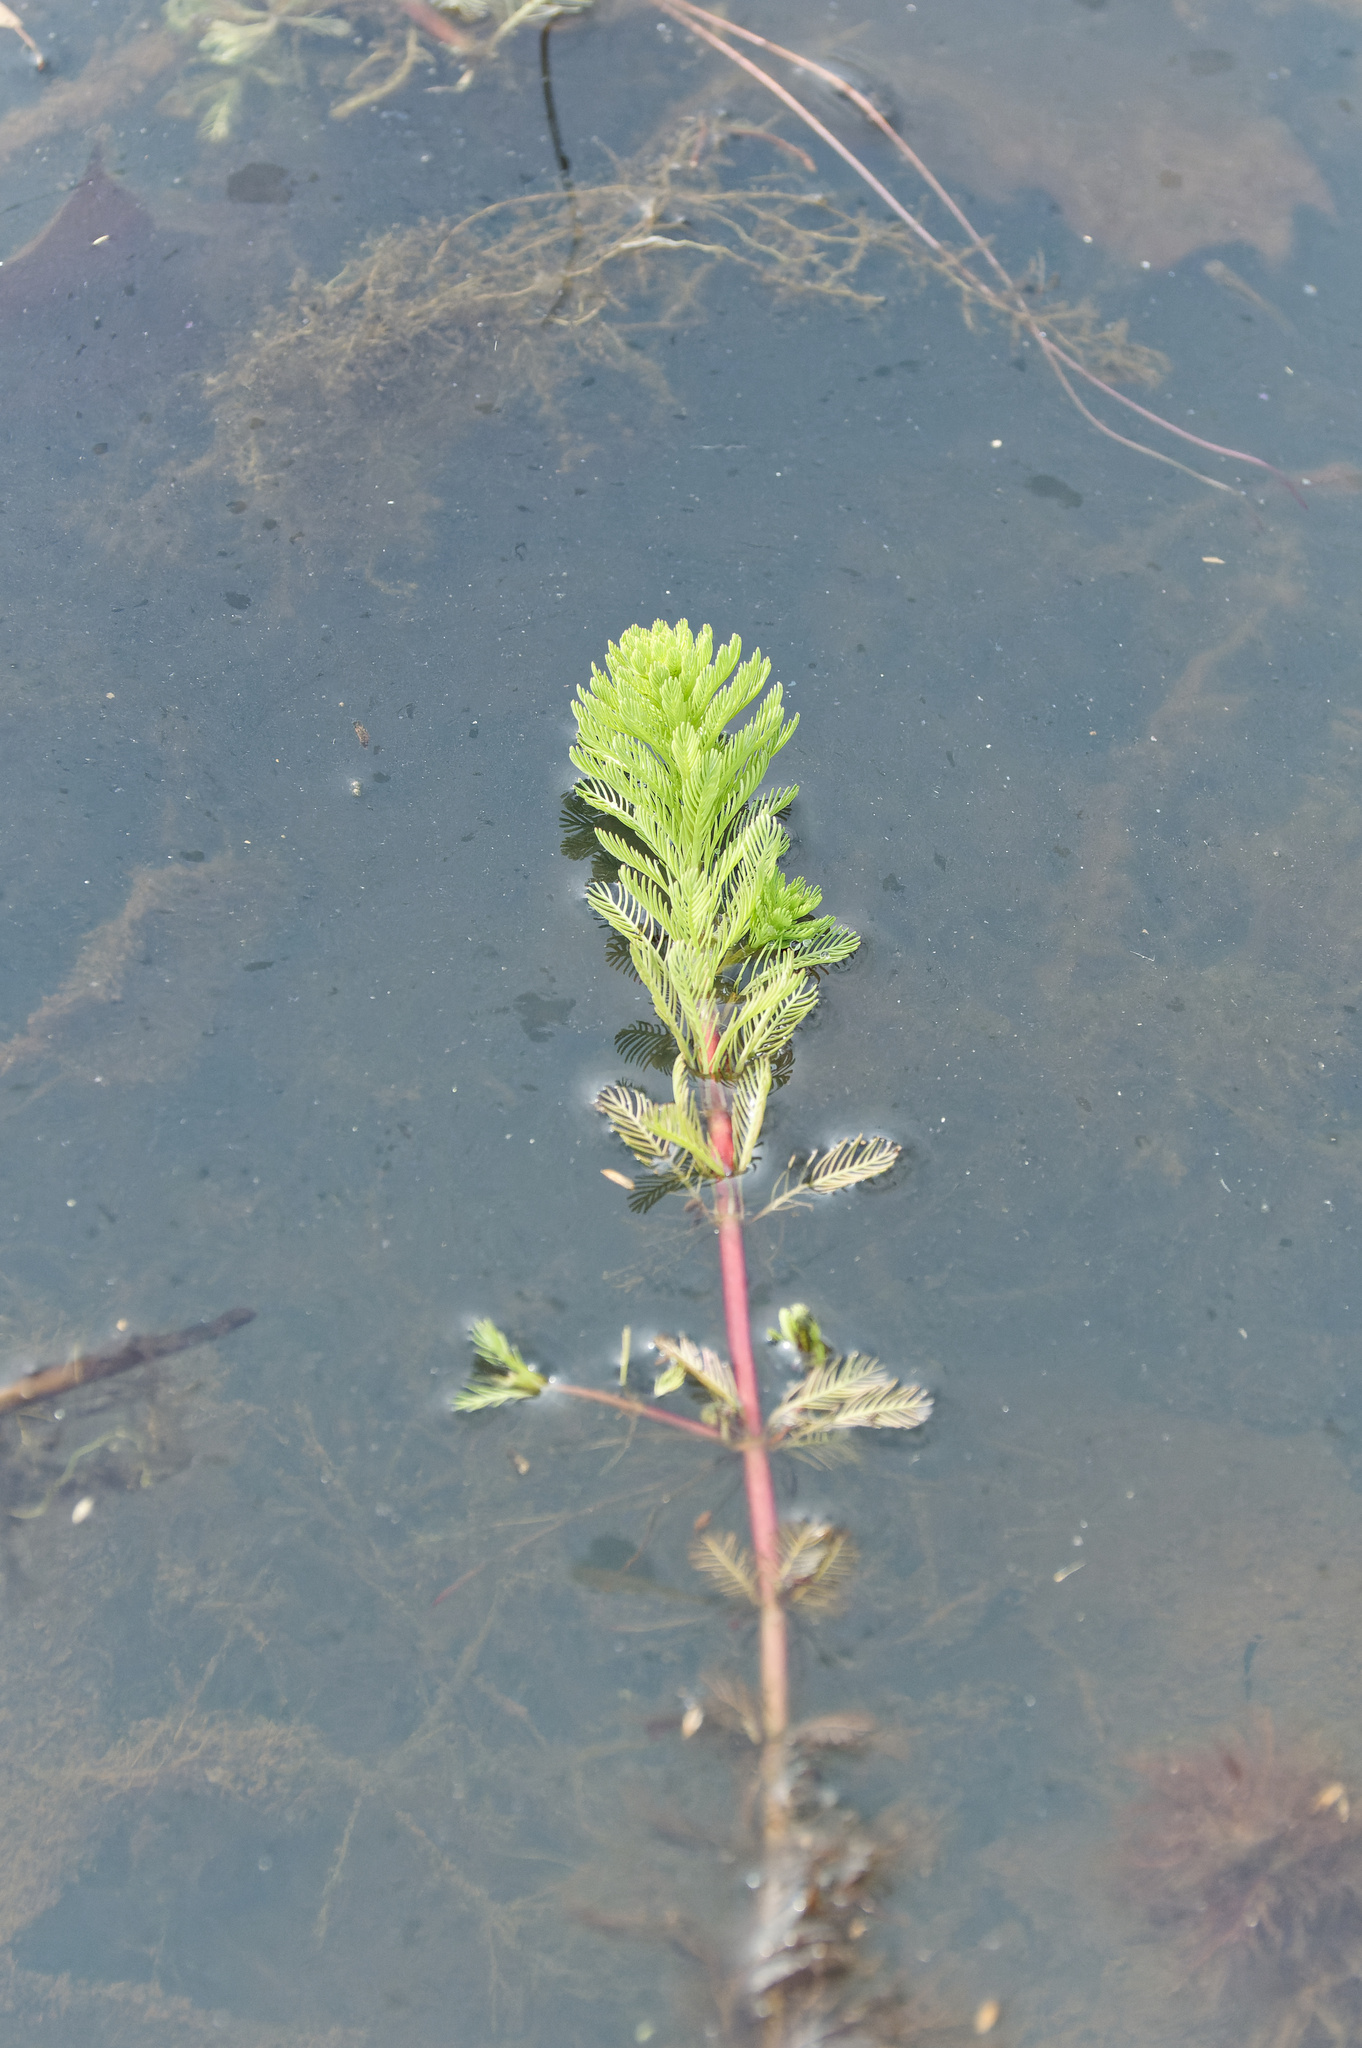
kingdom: Plantae
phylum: Tracheophyta
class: Magnoliopsida
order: Saxifragales
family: Haloragaceae
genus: Myriophyllum
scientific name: Myriophyllum aquaticum
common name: Parrot's feather
